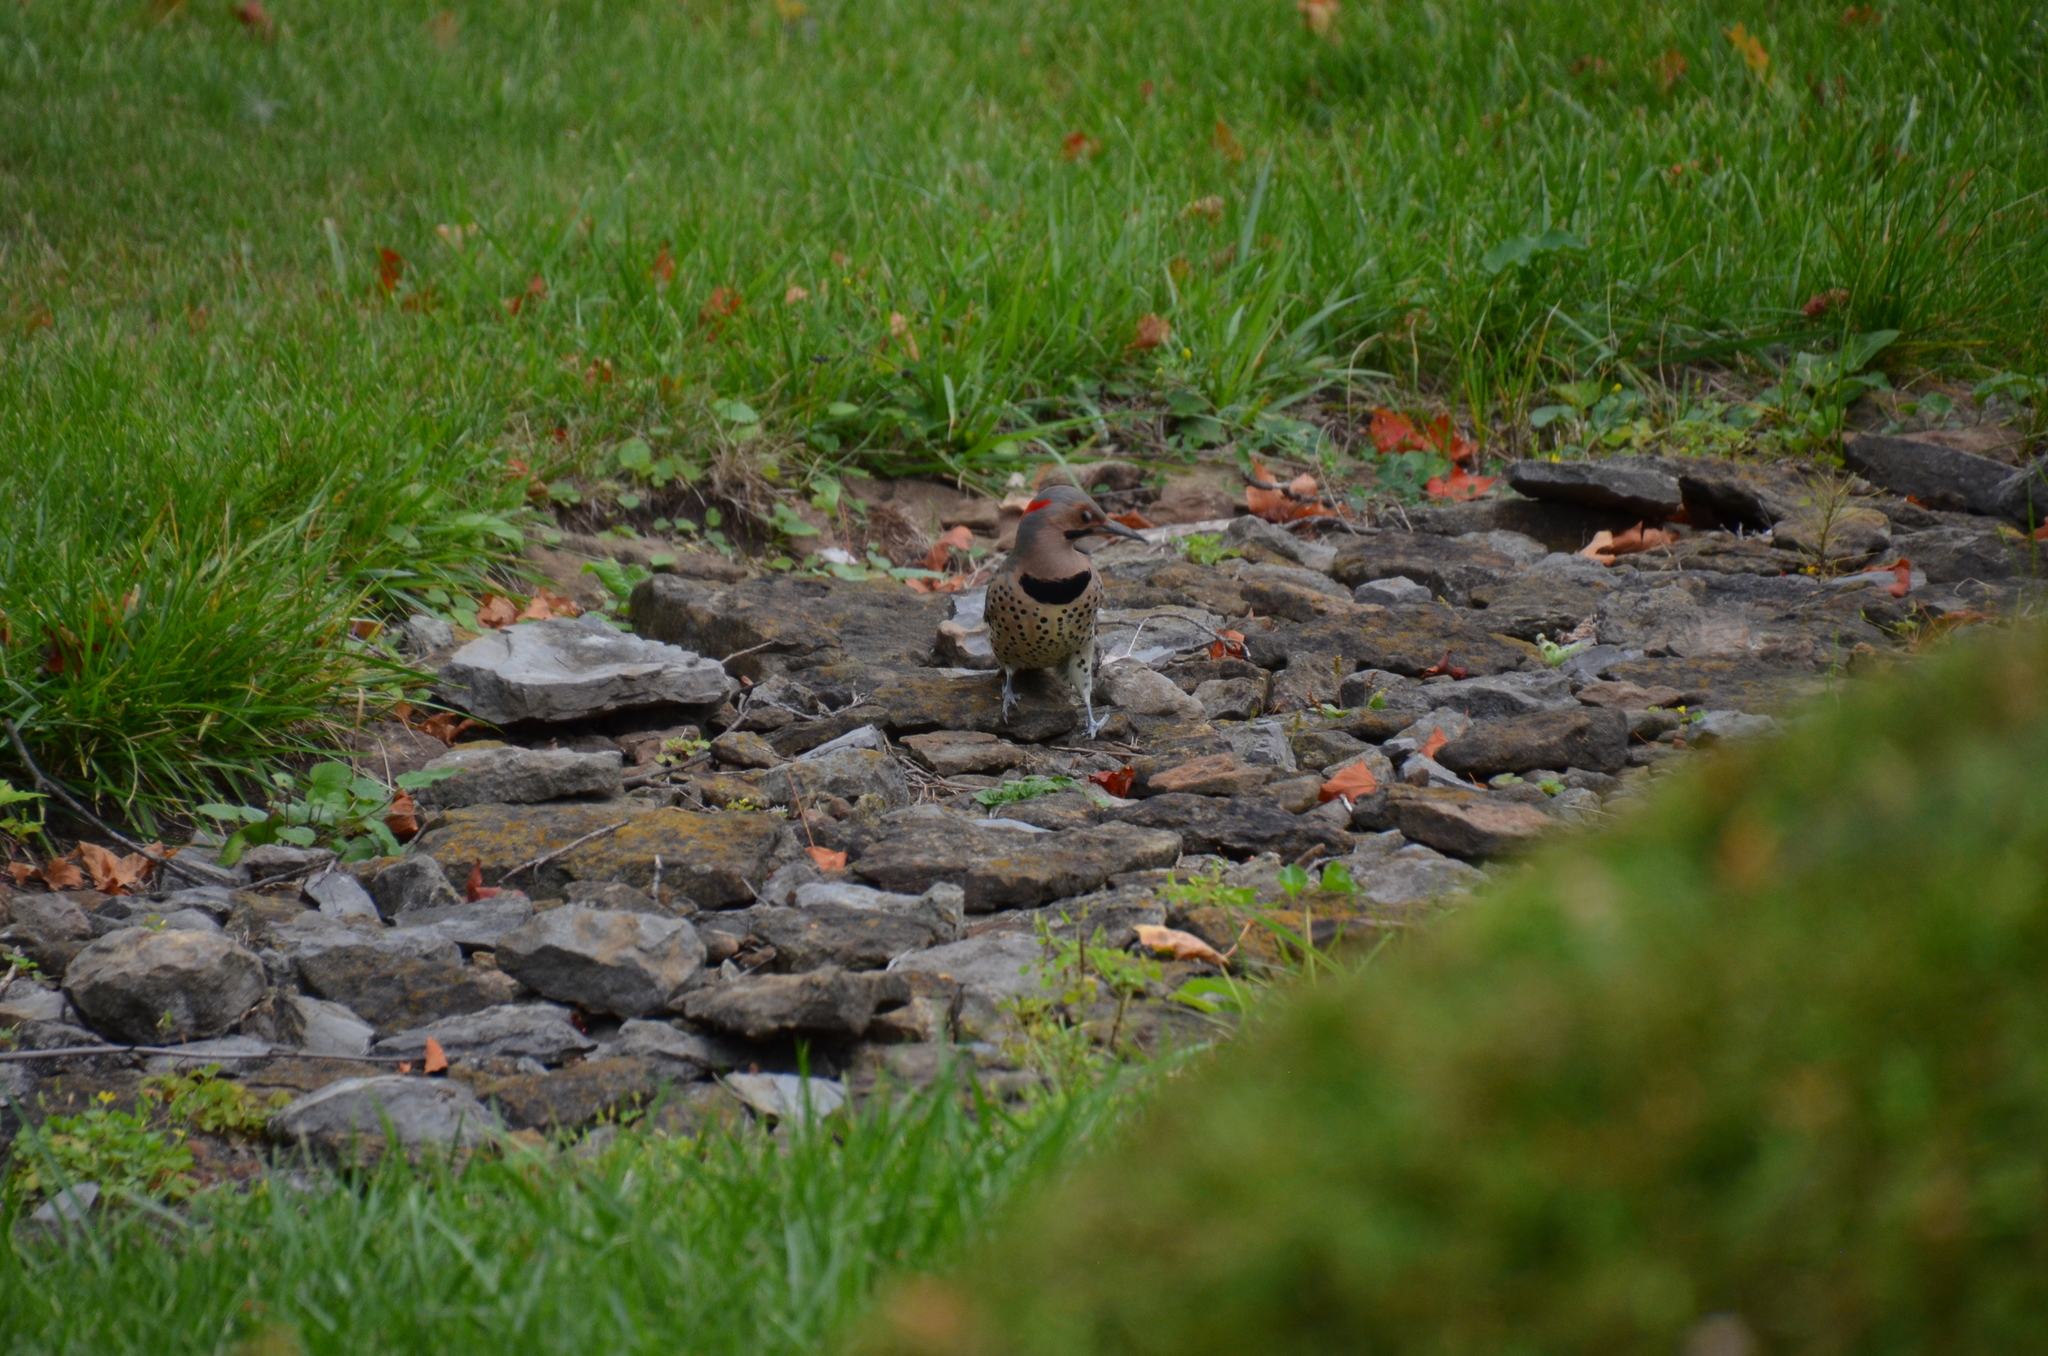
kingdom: Animalia
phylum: Chordata
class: Aves
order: Piciformes
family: Picidae
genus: Colaptes
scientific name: Colaptes auratus
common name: Northern flicker
